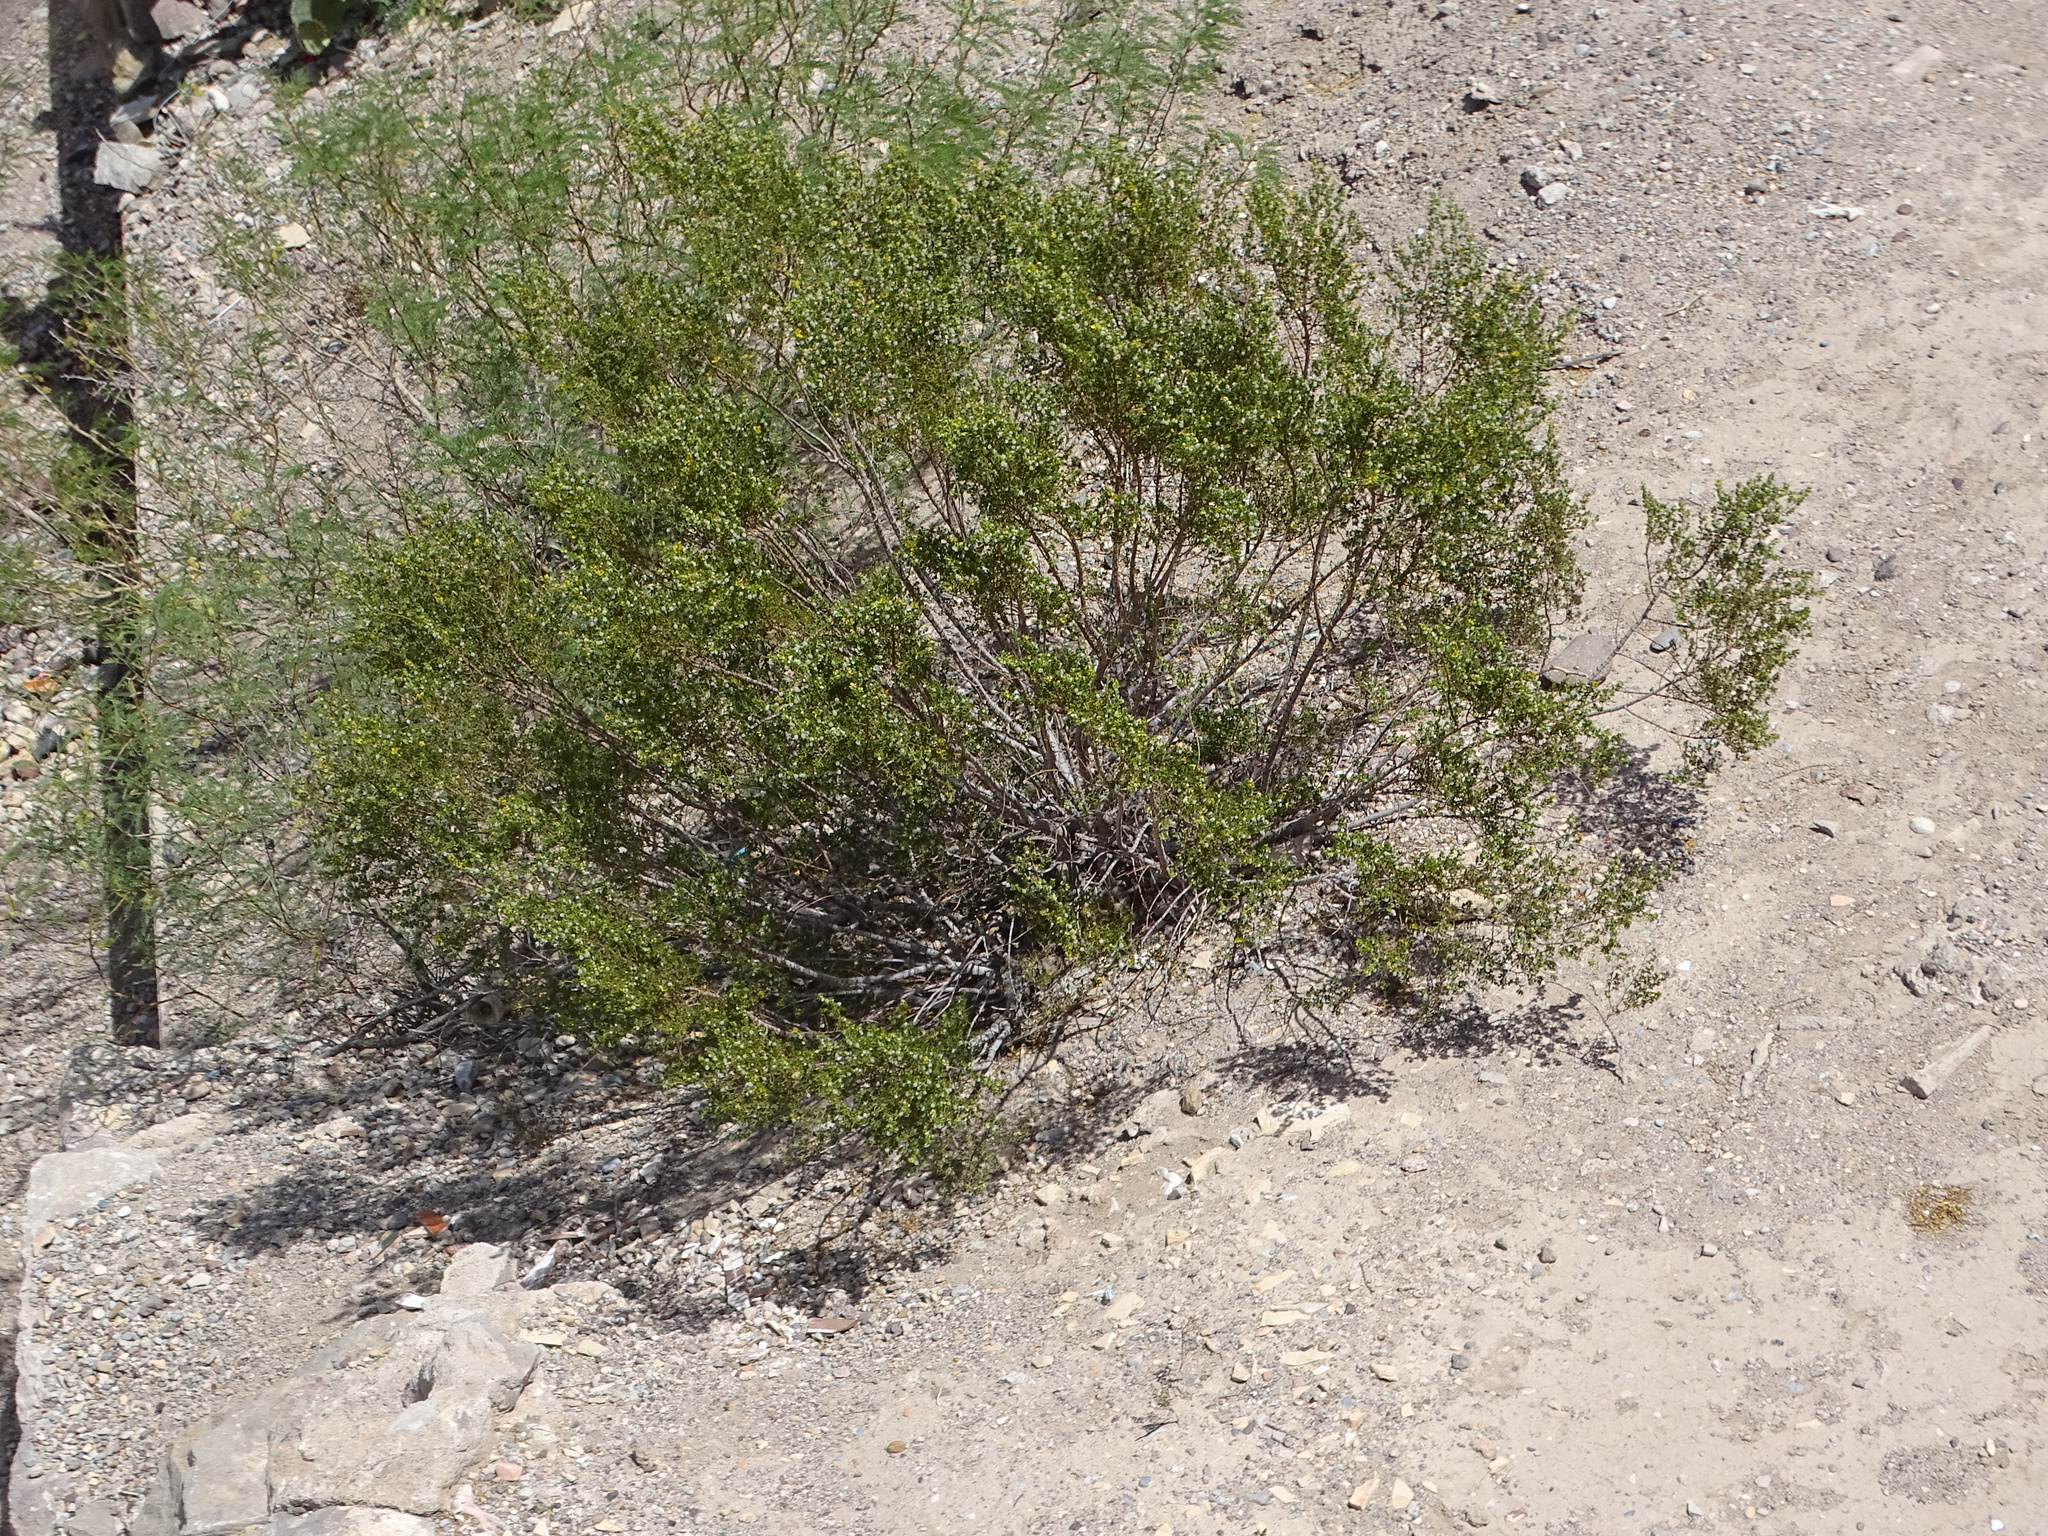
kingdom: Plantae
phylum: Tracheophyta
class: Magnoliopsida
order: Zygophyllales
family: Zygophyllaceae
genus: Larrea
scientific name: Larrea tridentata
